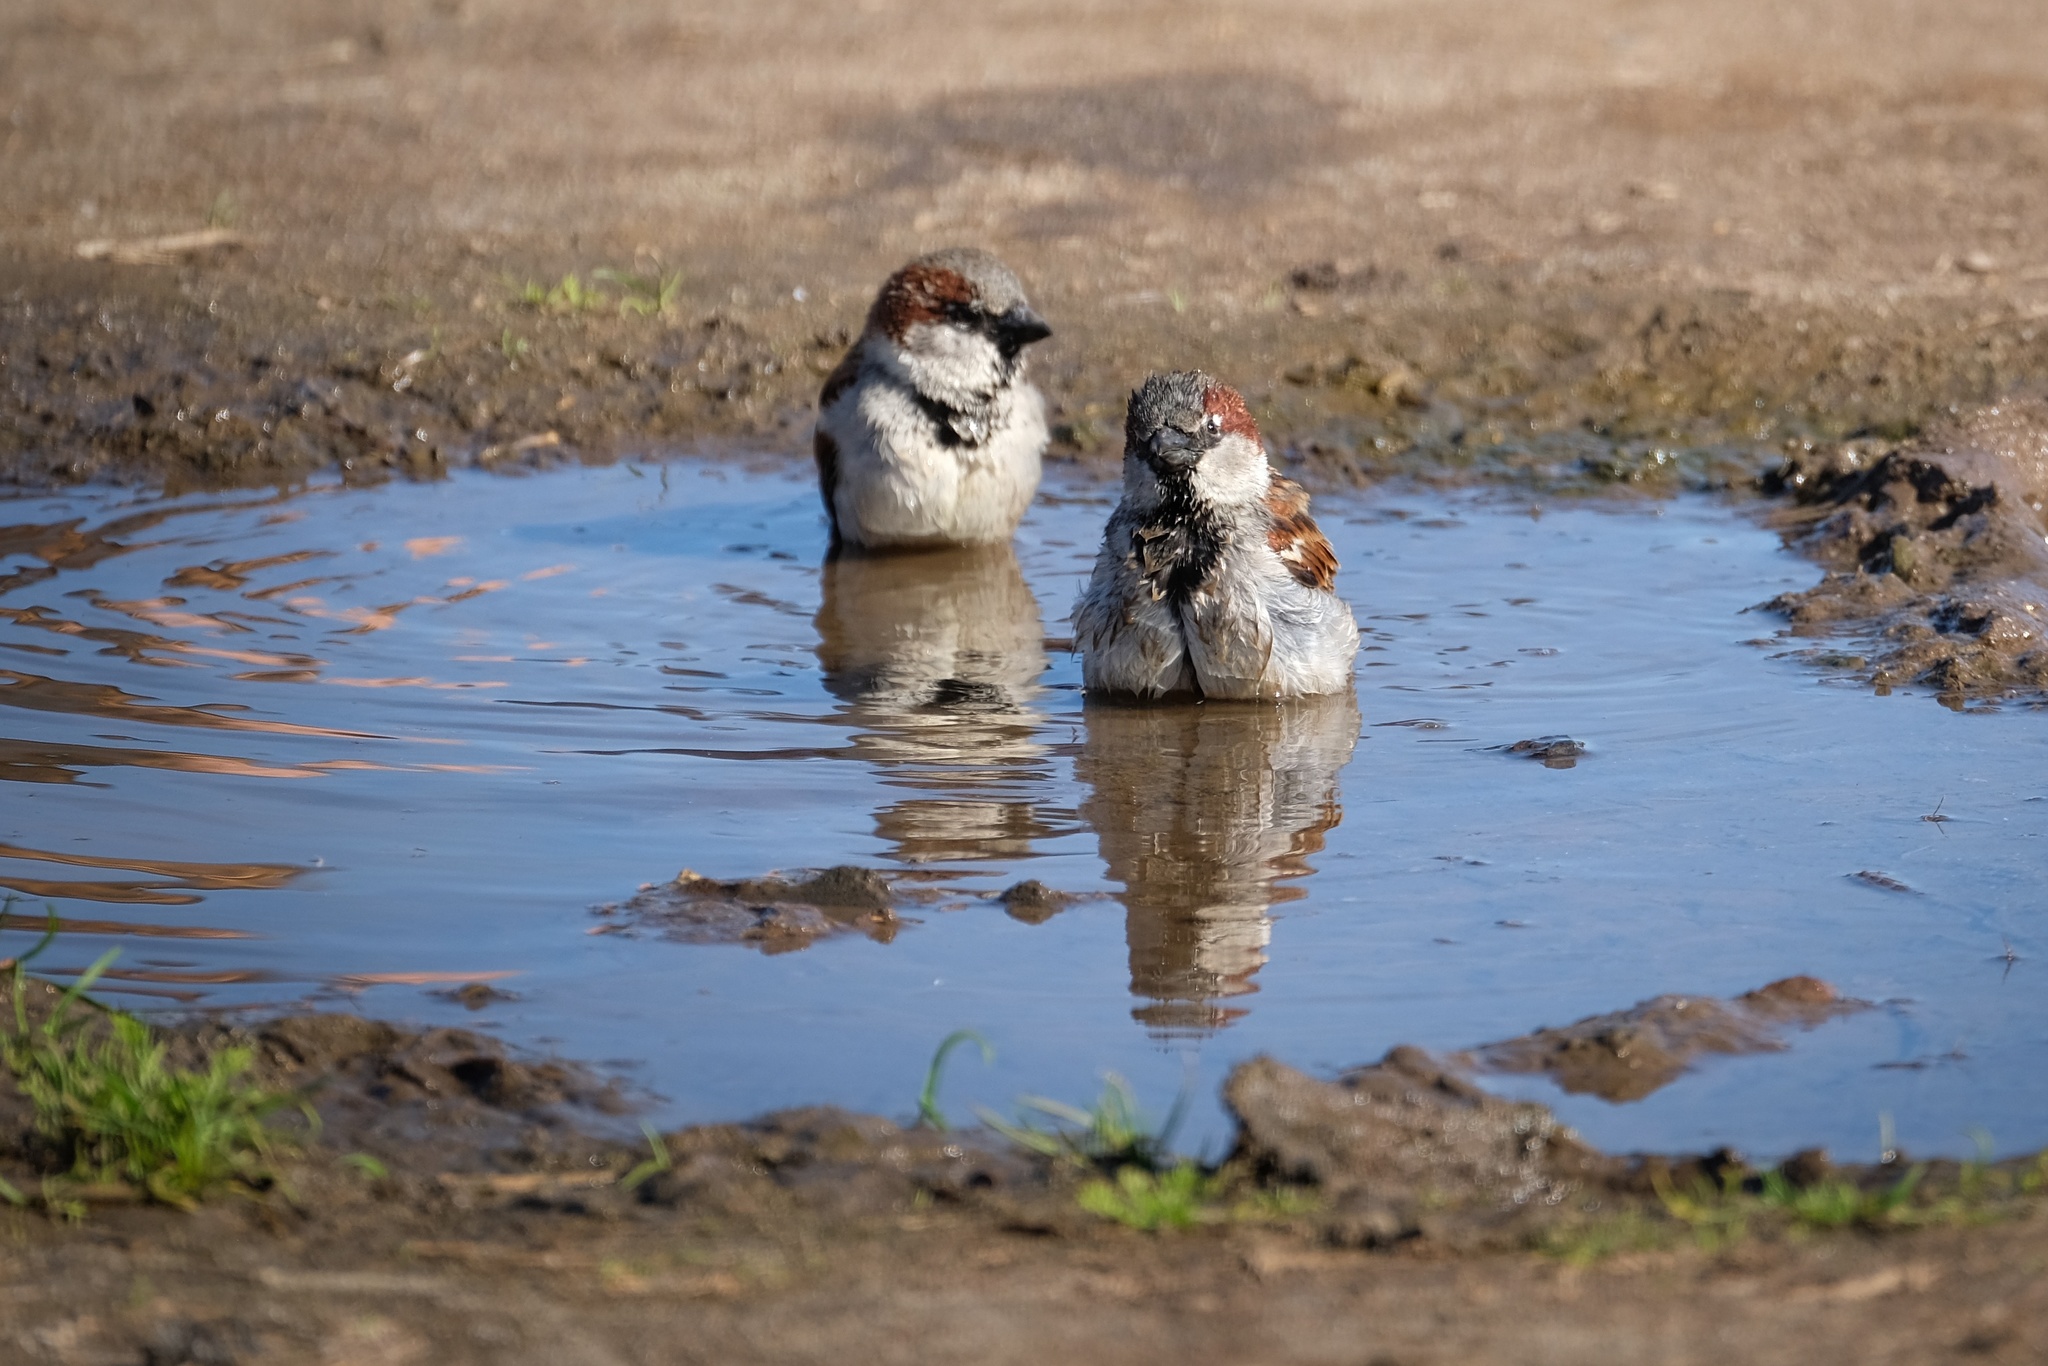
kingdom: Animalia
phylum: Chordata
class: Aves
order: Passeriformes
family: Passeridae
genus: Passer
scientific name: Passer domesticus
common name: House sparrow
